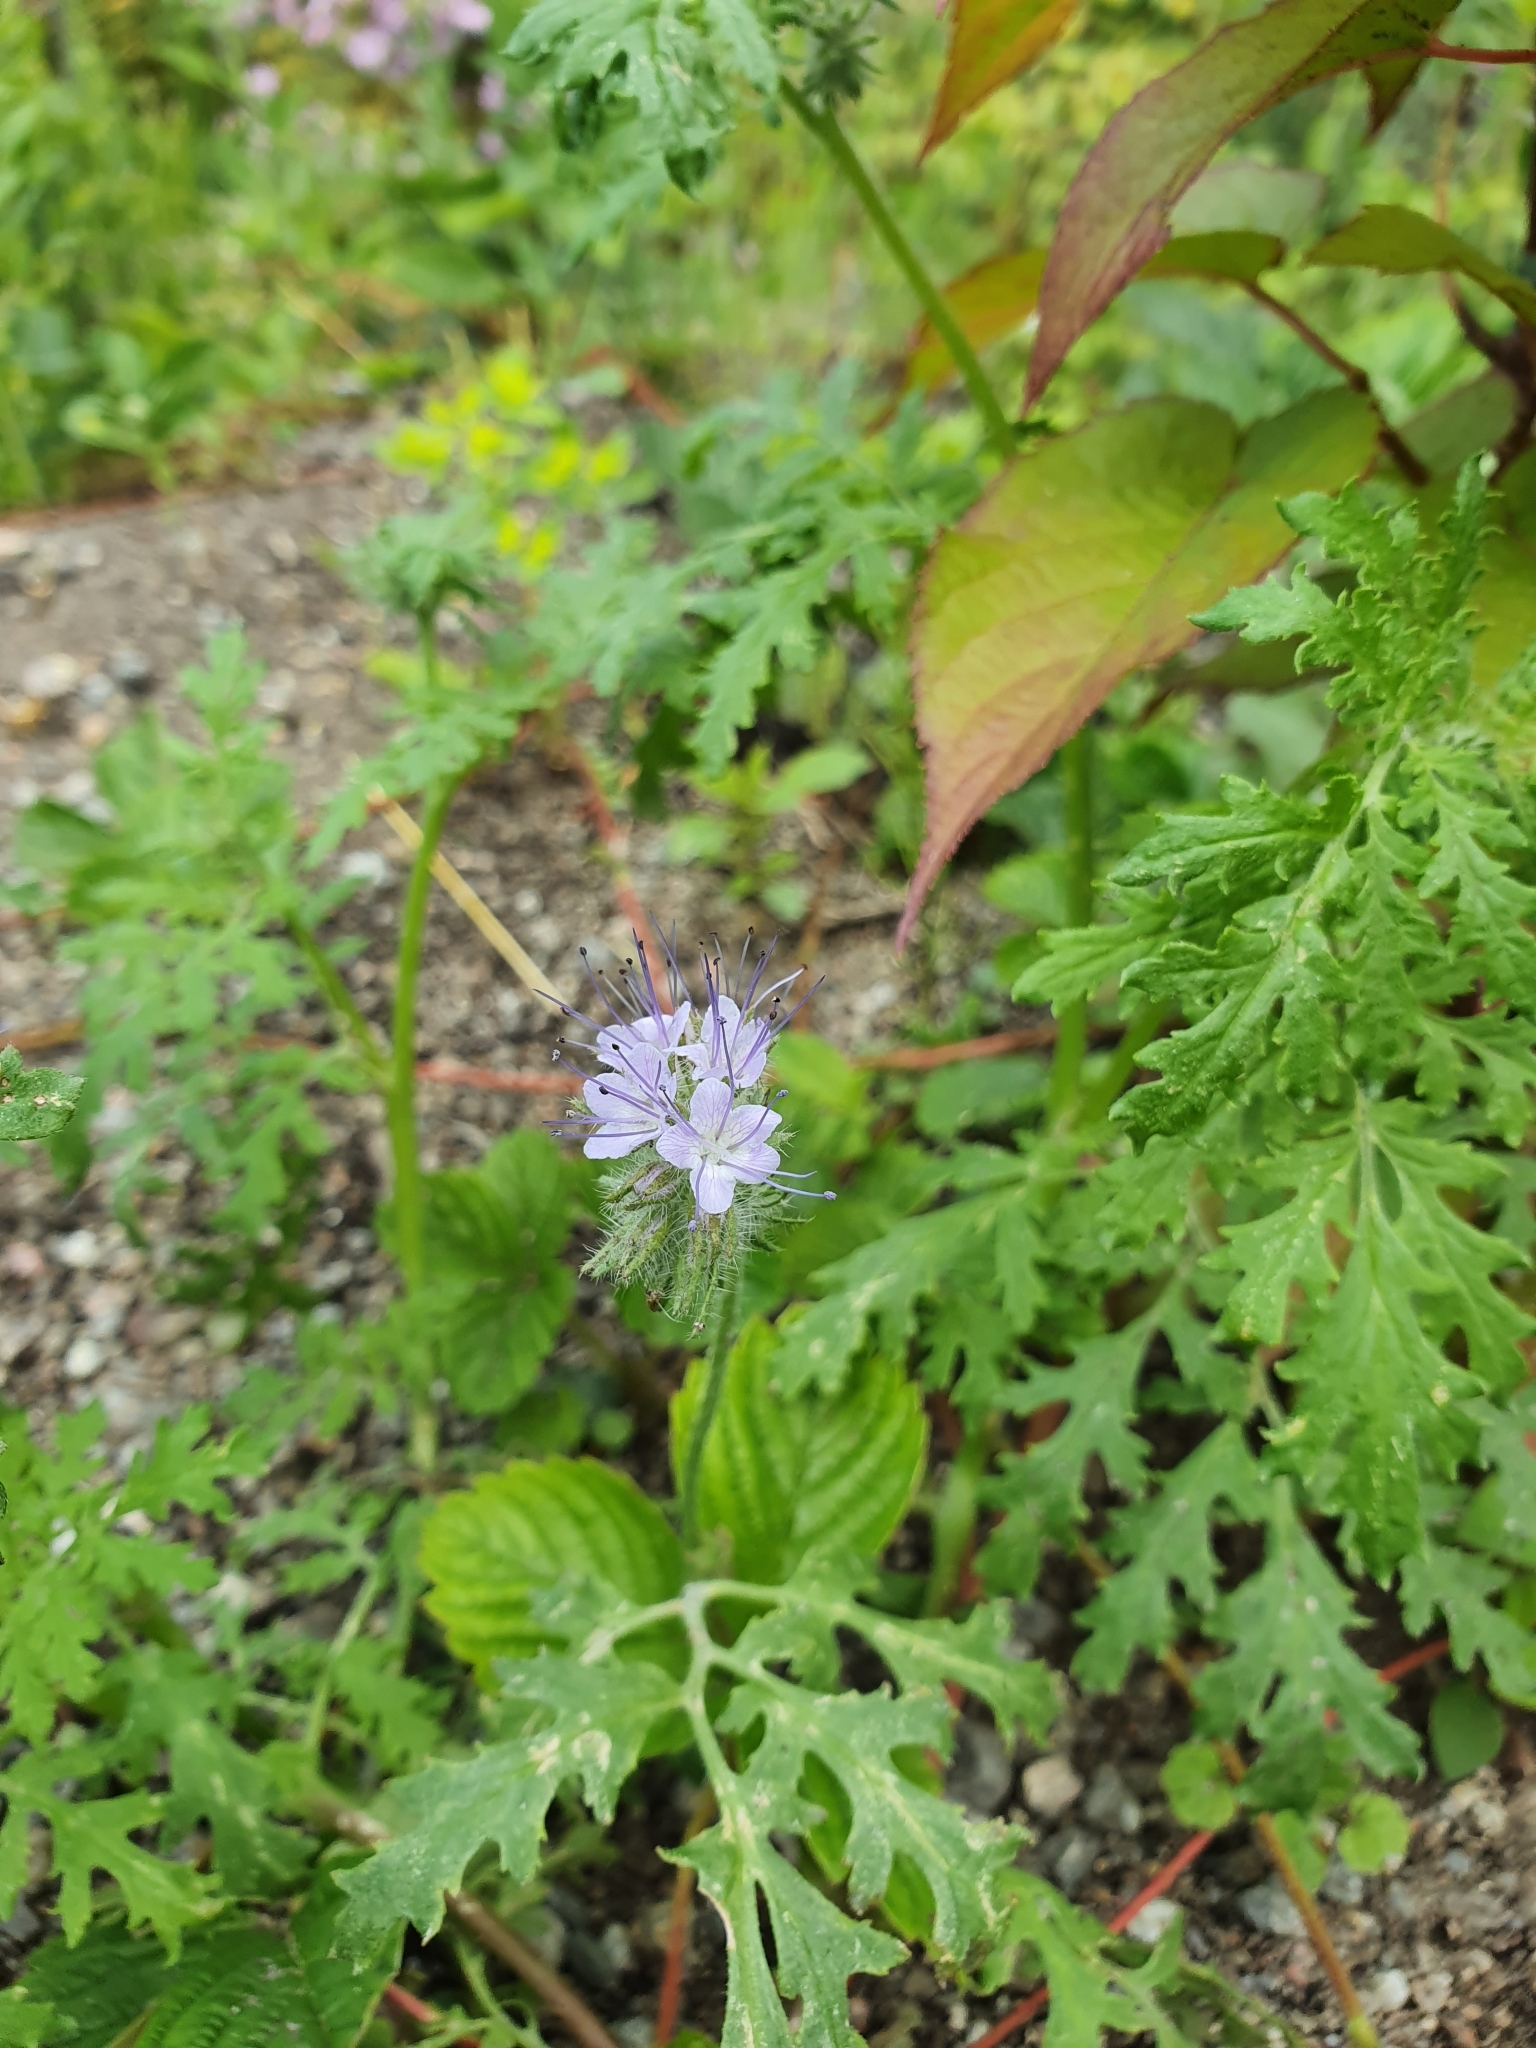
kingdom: Plantae
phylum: Tracheophyta
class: Magnoliopsida
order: Boraginales
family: Hydrophyllaceae
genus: Phacelia
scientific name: Phacelia tanacetifolia
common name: Phacelia
